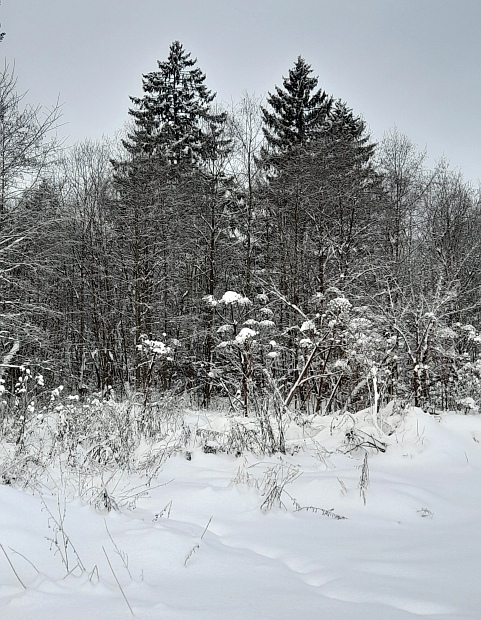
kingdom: Plantae
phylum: Tracheophyta
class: Pinopsida
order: Pinales
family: Pinaceae
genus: Picea
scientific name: Picea abies
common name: Norway spruce
